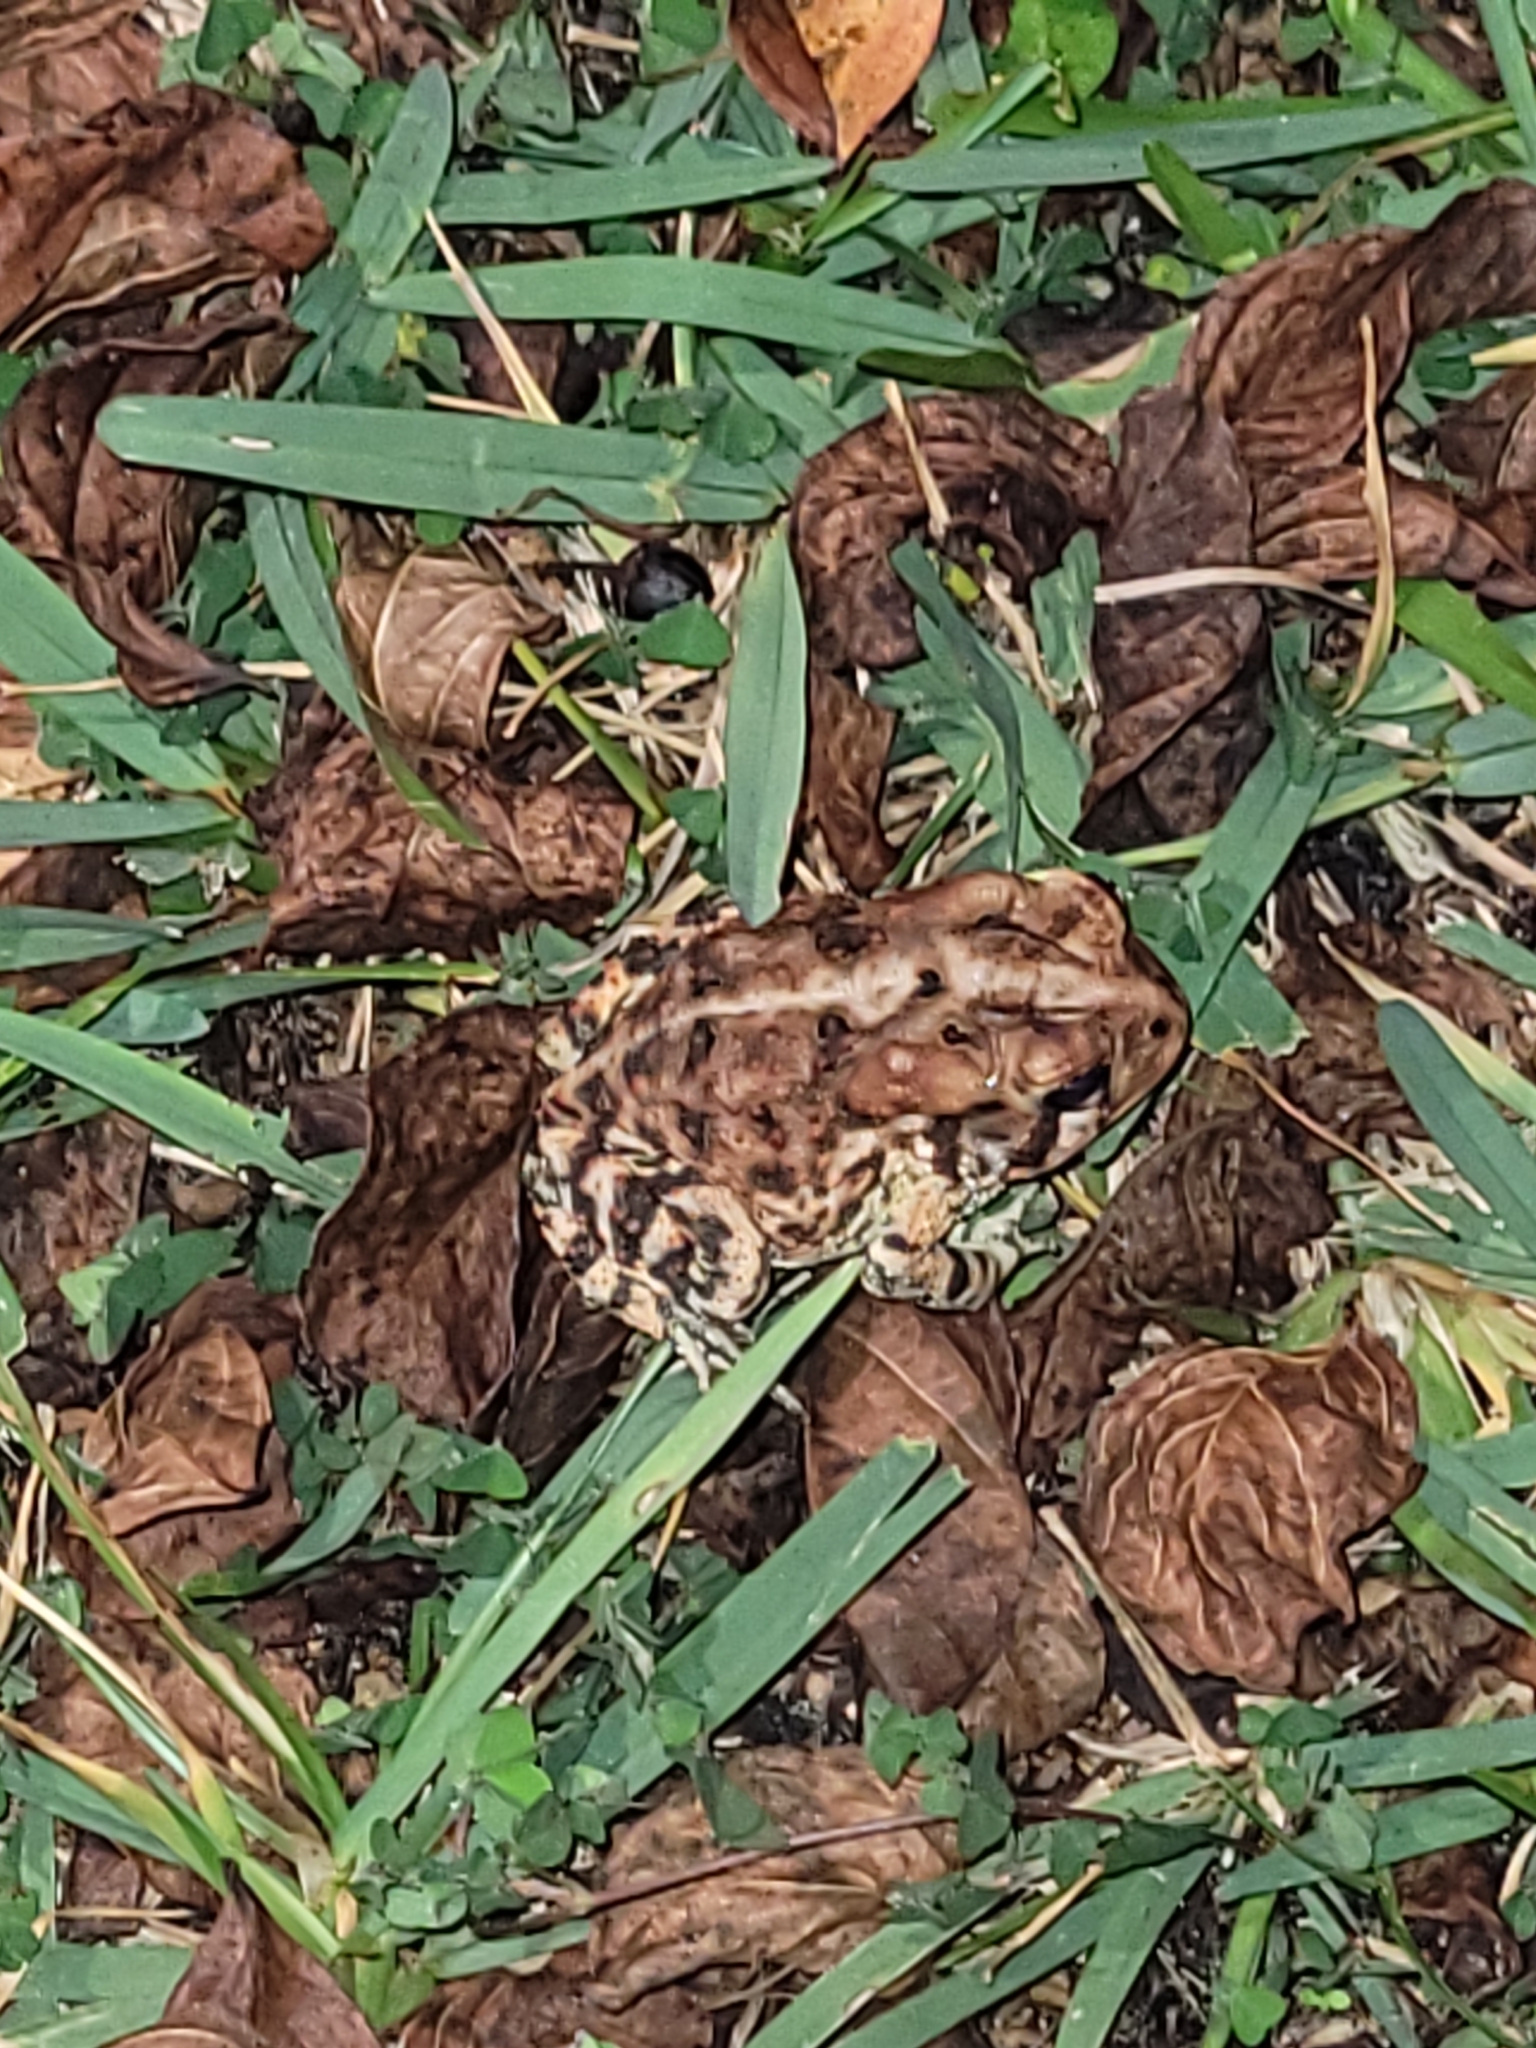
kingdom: Animalia
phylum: Chordata
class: Amphibia
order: Anura
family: Bufonidae
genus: Anaxyrus
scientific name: Anaxyrus terrestris
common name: Southern toad
